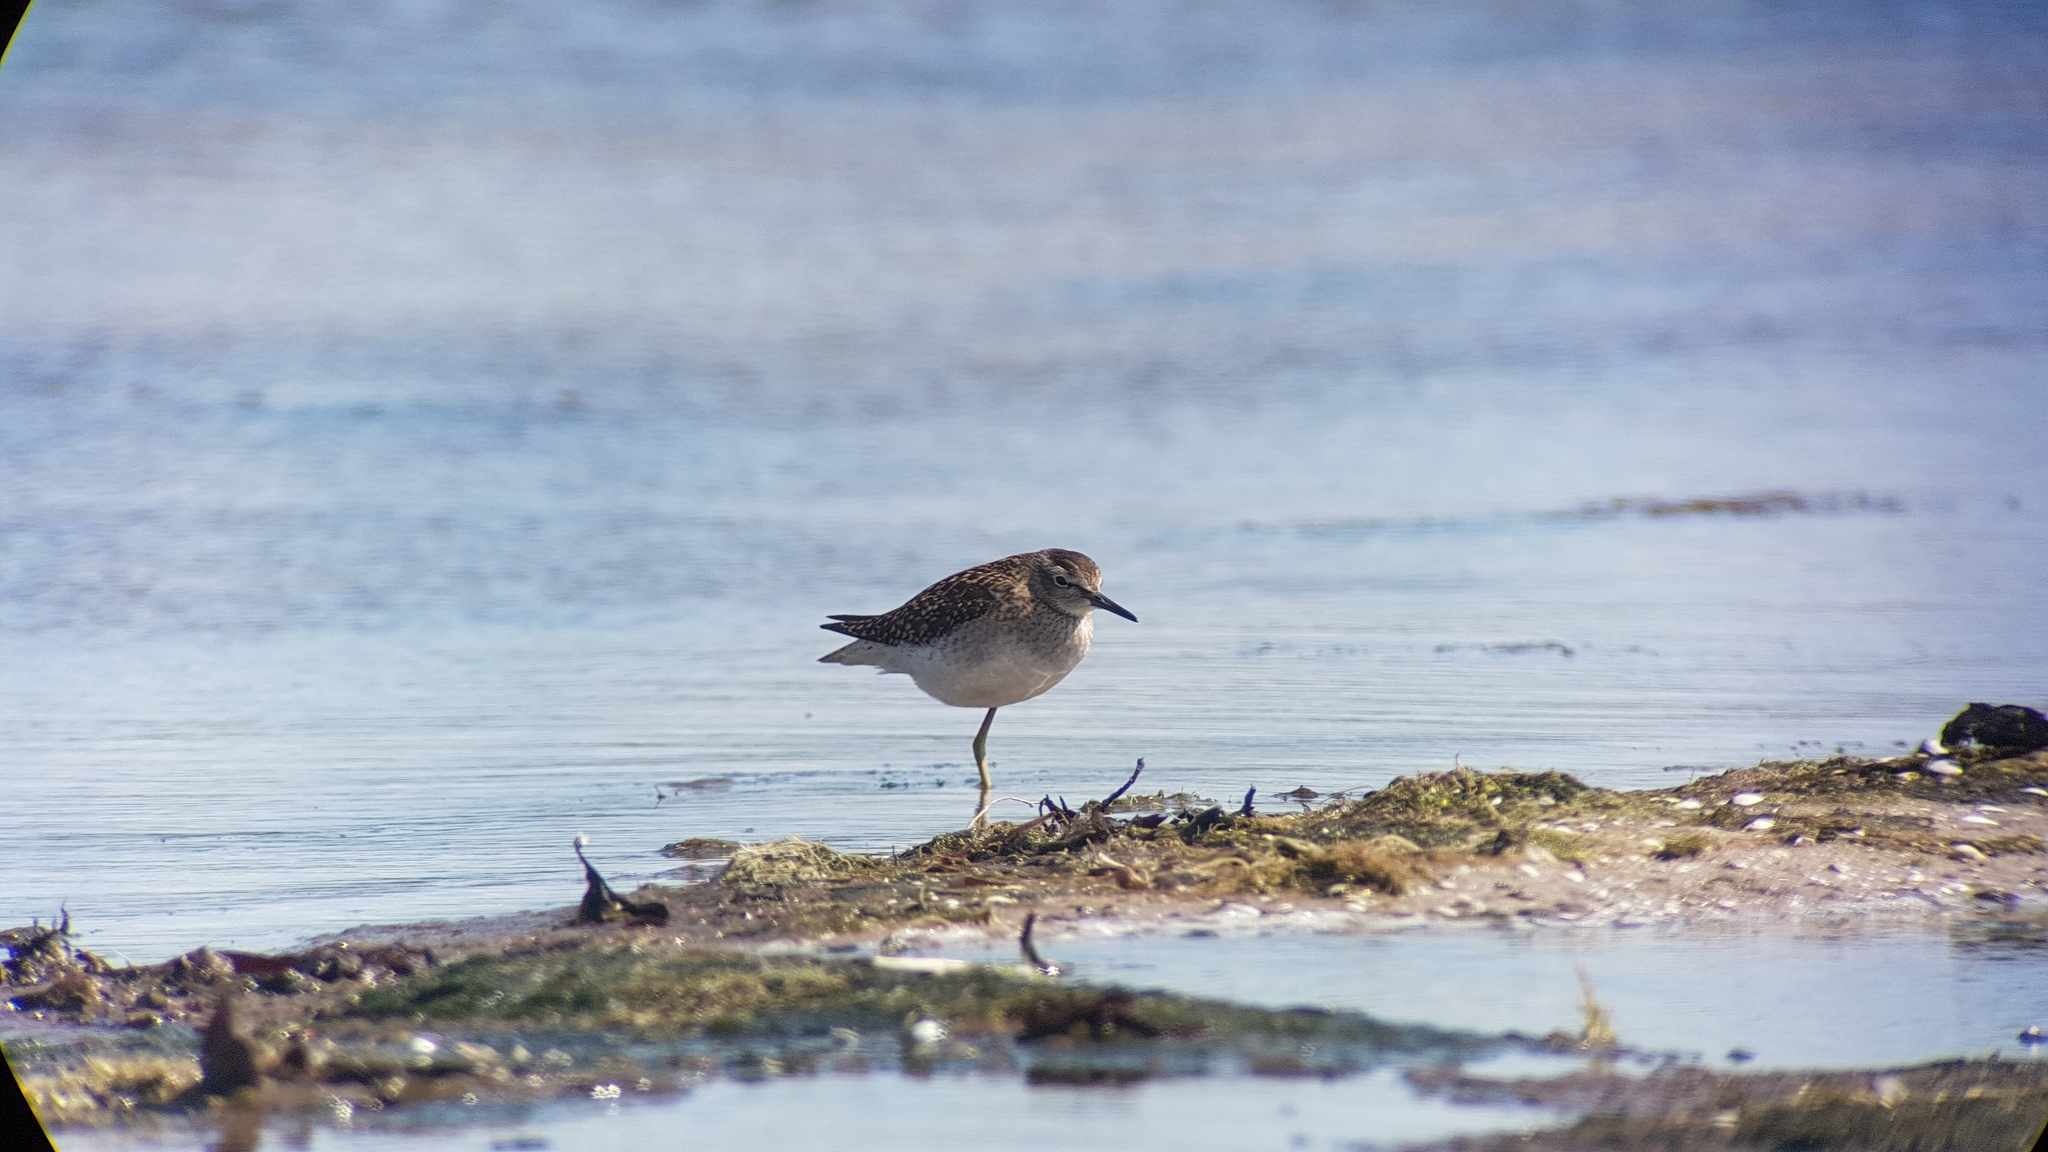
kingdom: Animalia
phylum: Chordata
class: Aves
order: Charadriiformes
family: Scolopacidae
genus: Tringa
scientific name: Tringa glareola
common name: Wood sandpiper
